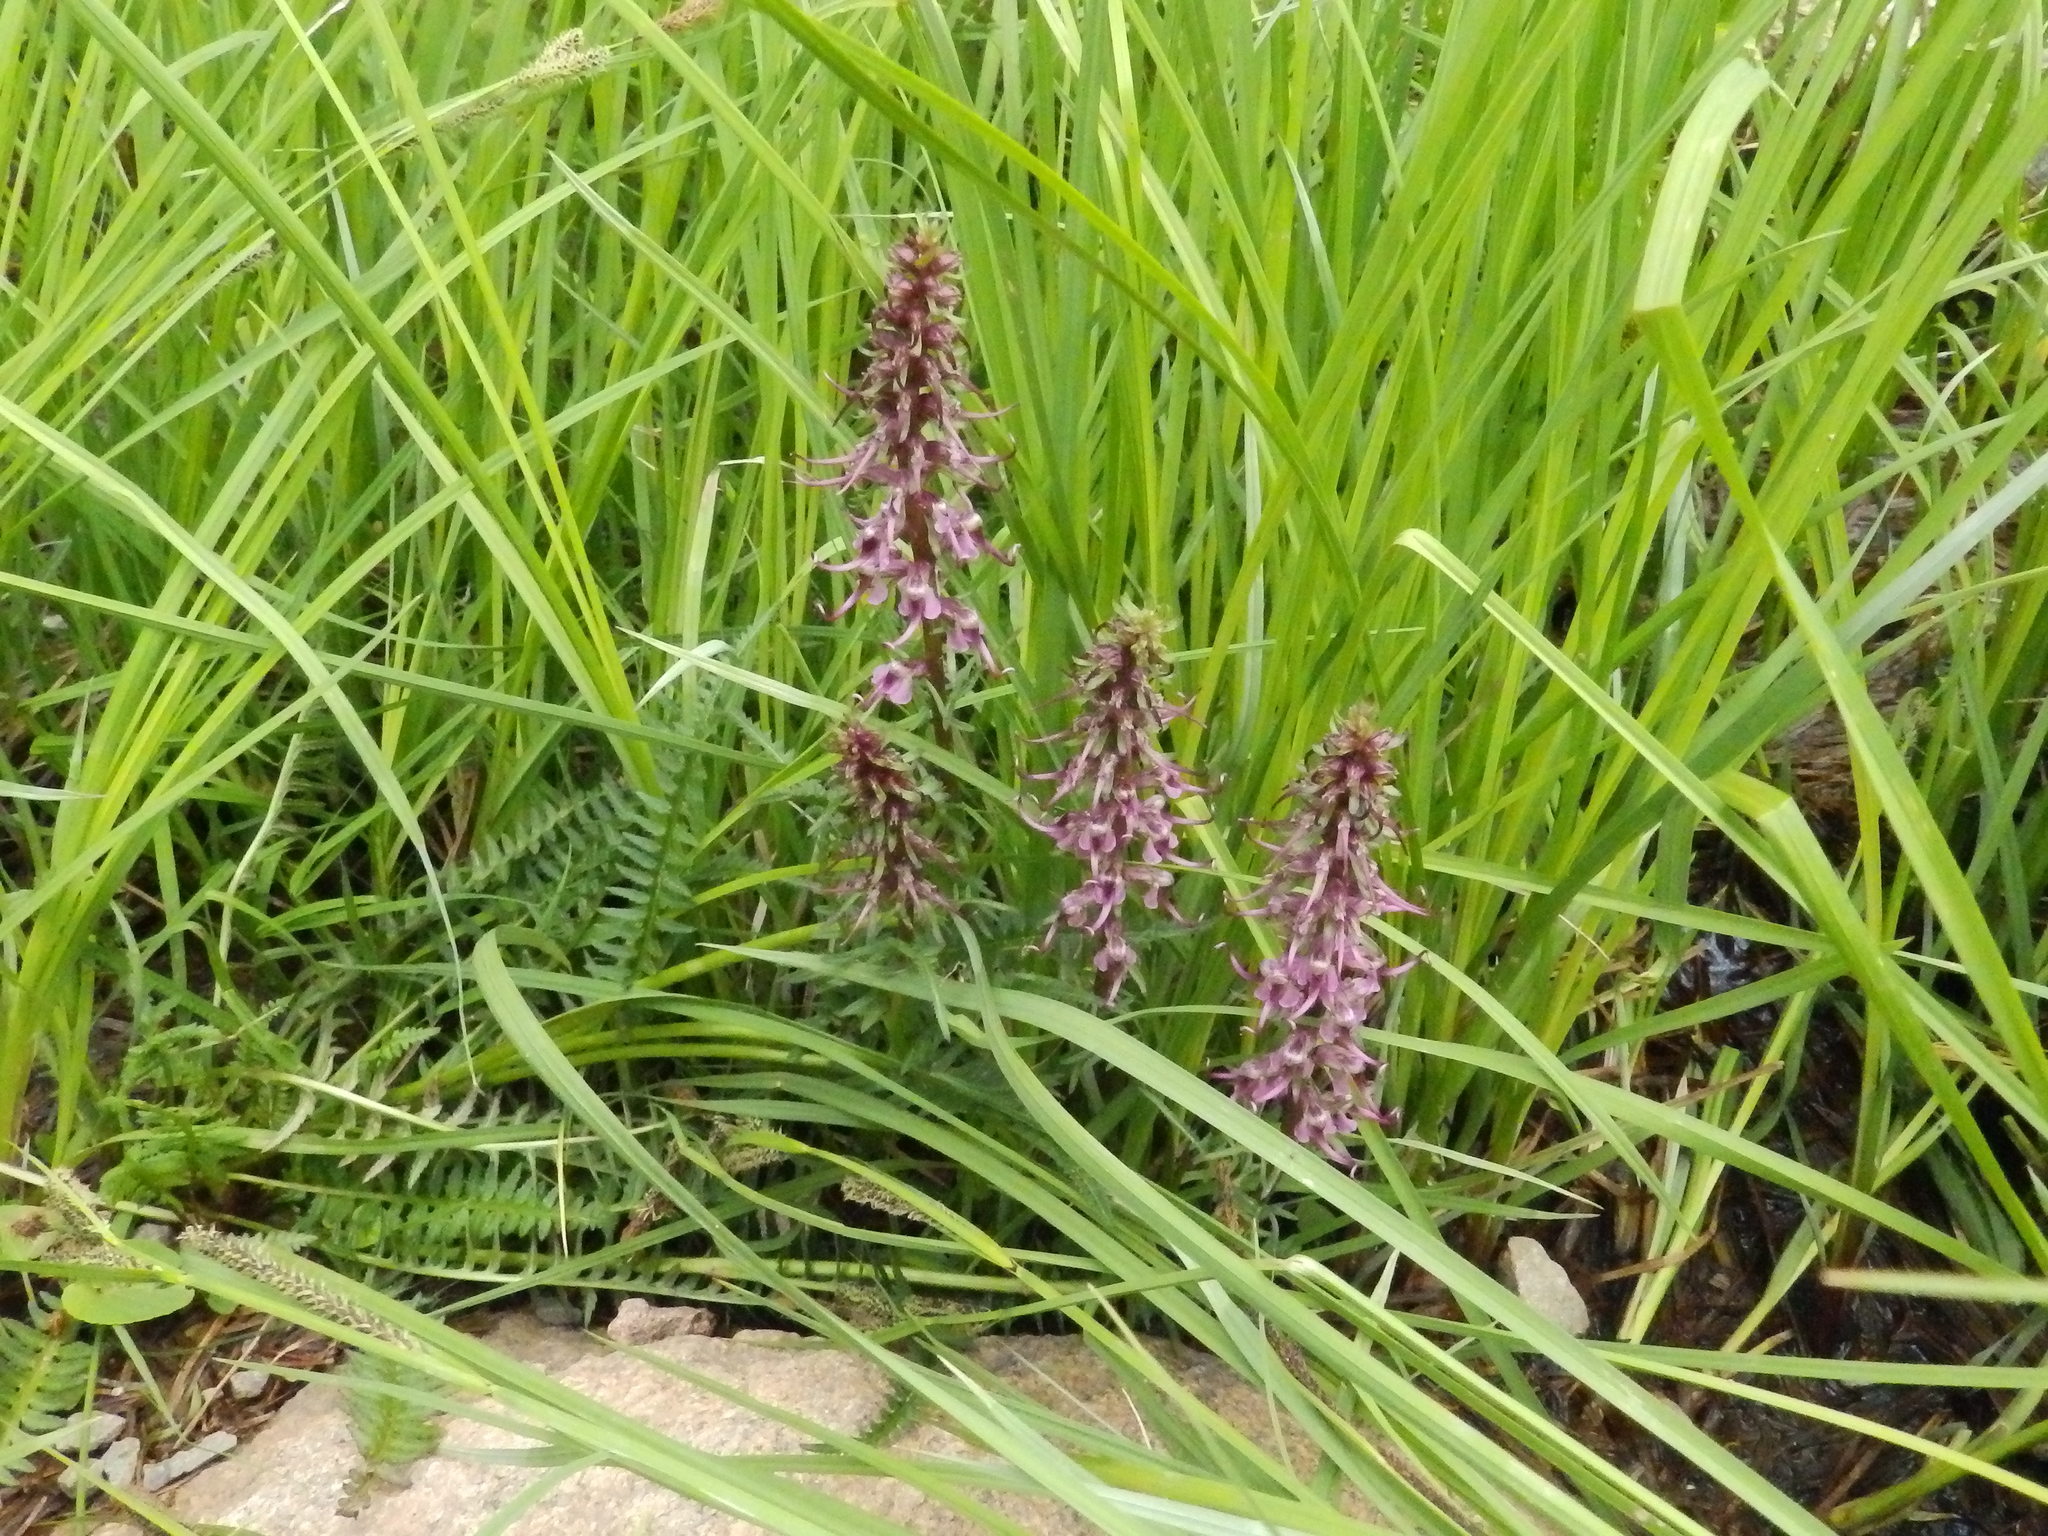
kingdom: Plantae
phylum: Tracheophyta
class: Magnoliopsida
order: Lamiales
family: Orobanchaceae
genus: Pedicularis
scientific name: Pedicularis groenlandica
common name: Elephant's-head
